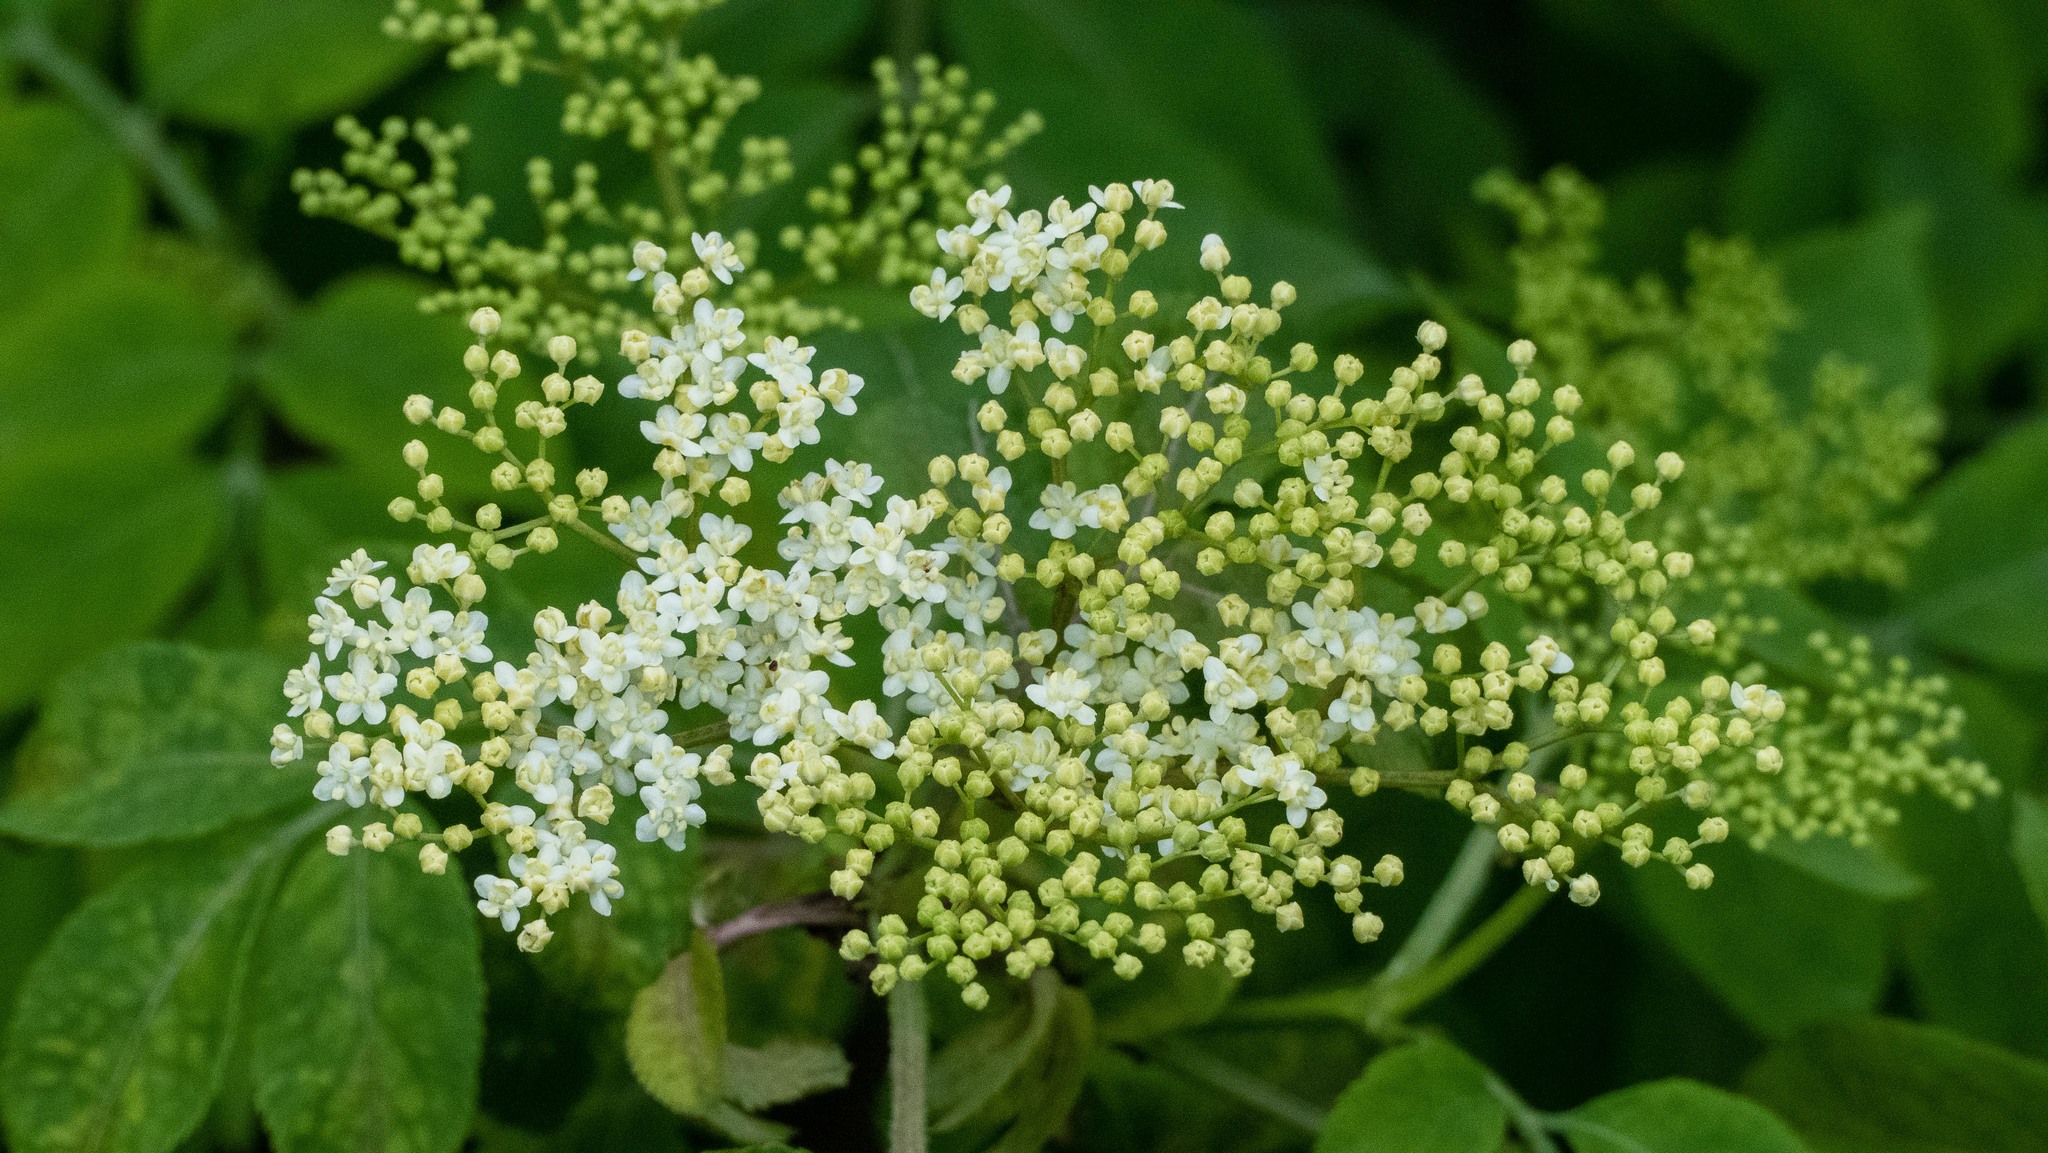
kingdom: Plantae
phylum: Tracheophyta
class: Magnoliopsida
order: Dipsacales
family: Viburnaceae
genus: Sambucus
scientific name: Sambucus nigra
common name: Elder
